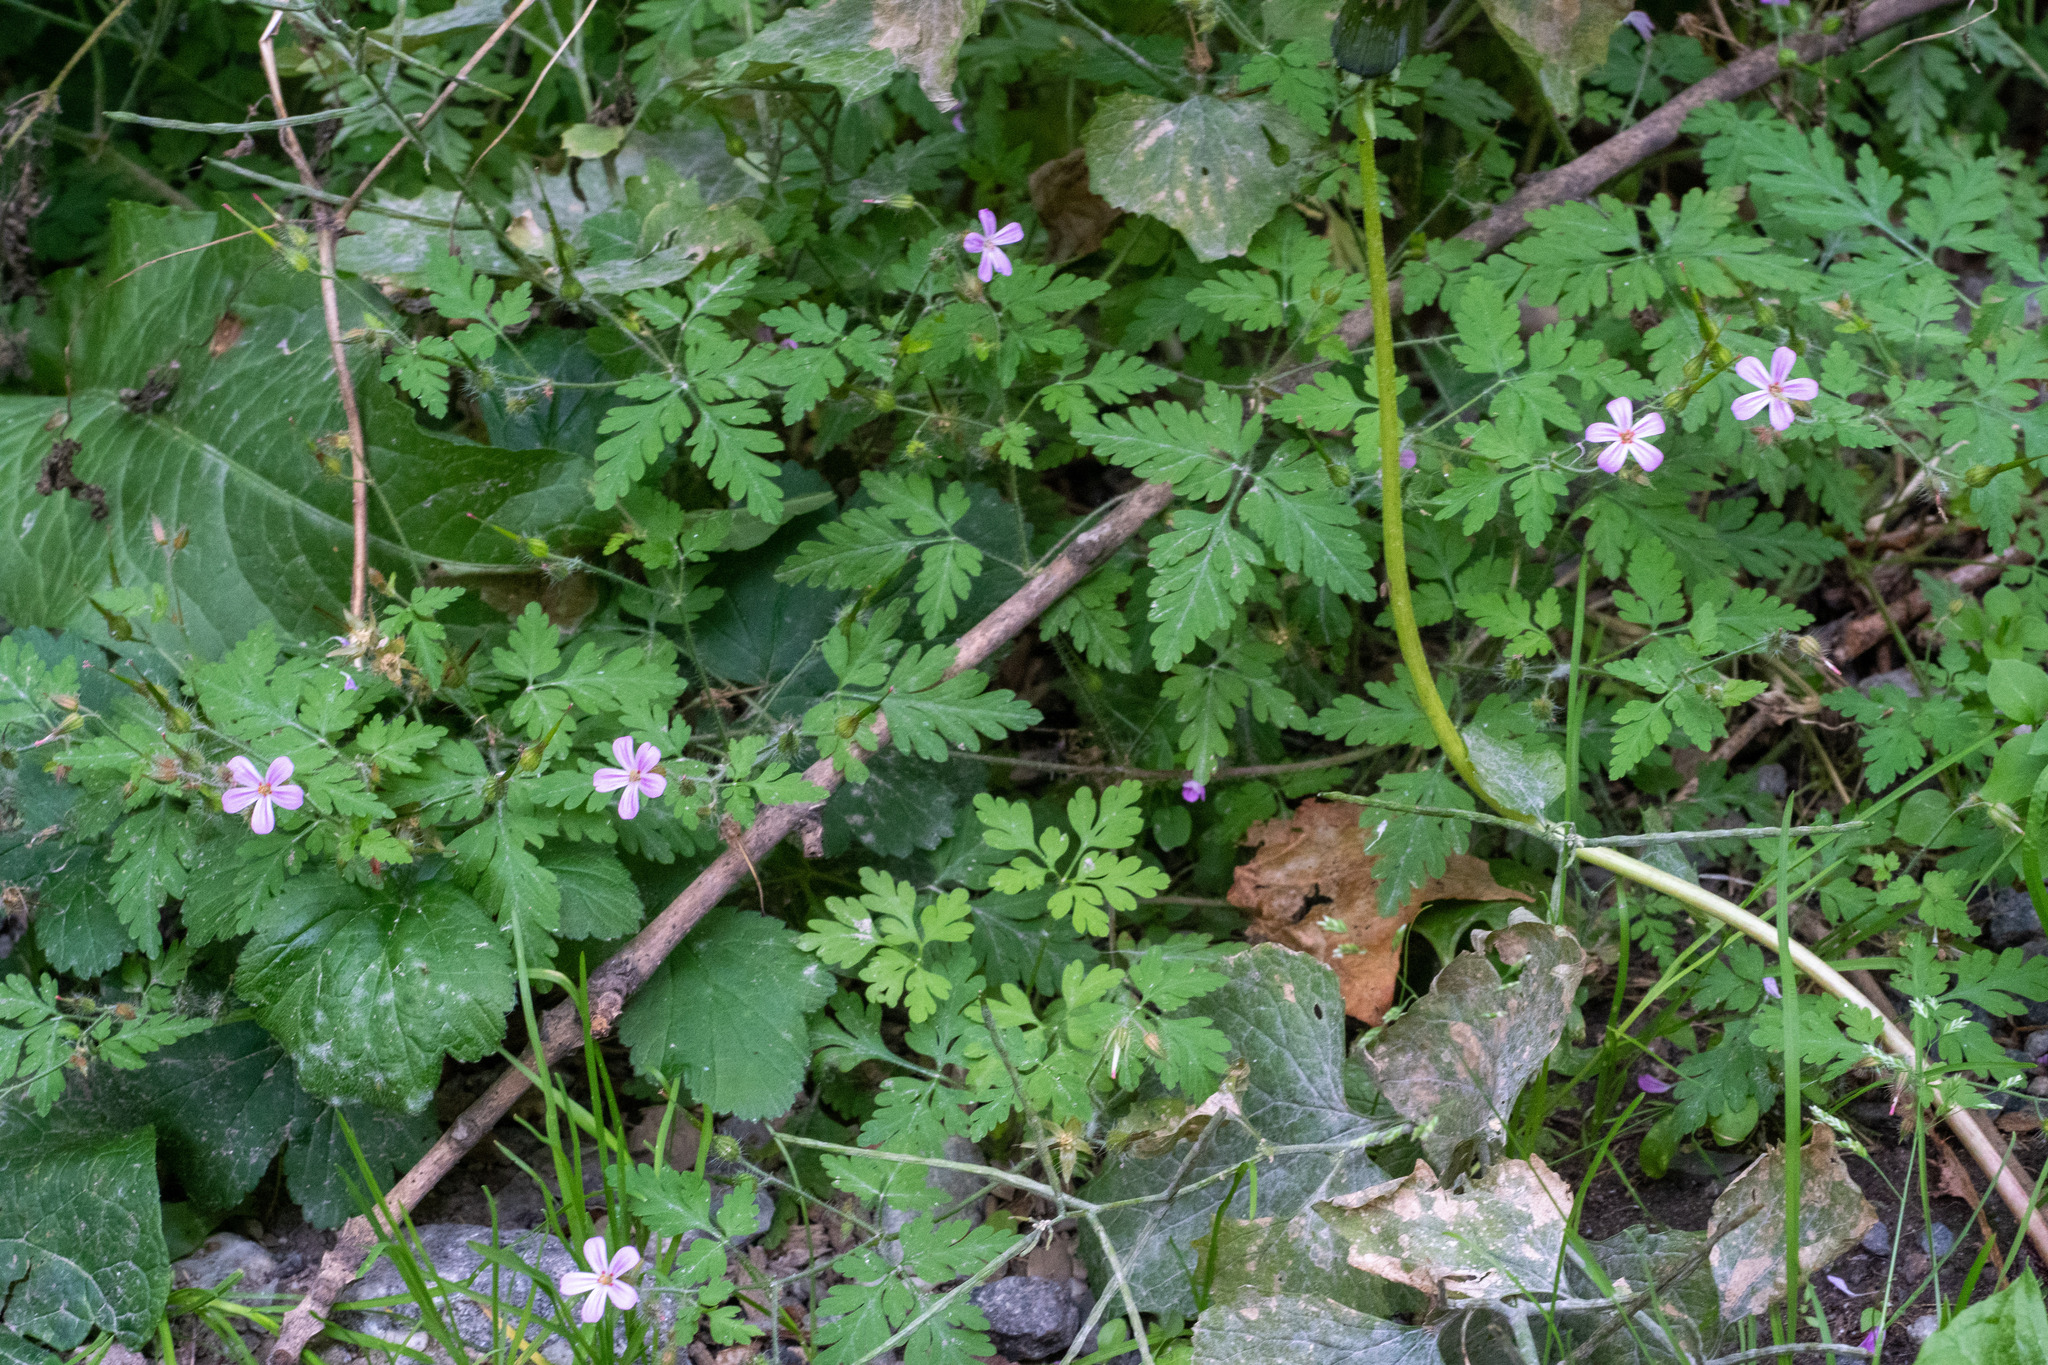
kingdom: Plantae
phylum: Tracheophyta
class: Magnoliopsida
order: Geraniales
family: Geraniaceae
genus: Geranium
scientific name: Geranium robertianum
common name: Herb-robert
